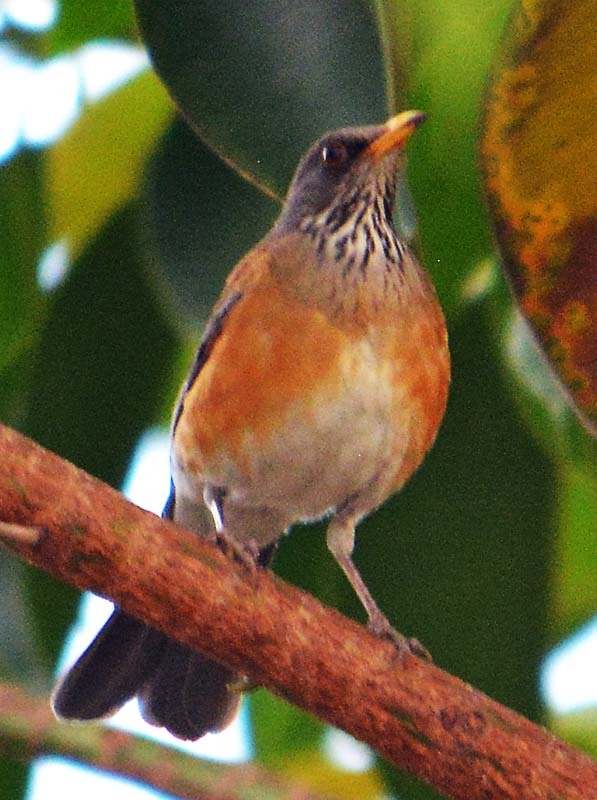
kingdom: Animalia
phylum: Chordata
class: Aves
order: Passeriformes
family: Turdidae
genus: Turdus
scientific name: Turdus rufopalliatus
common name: Rufous-backed robin
